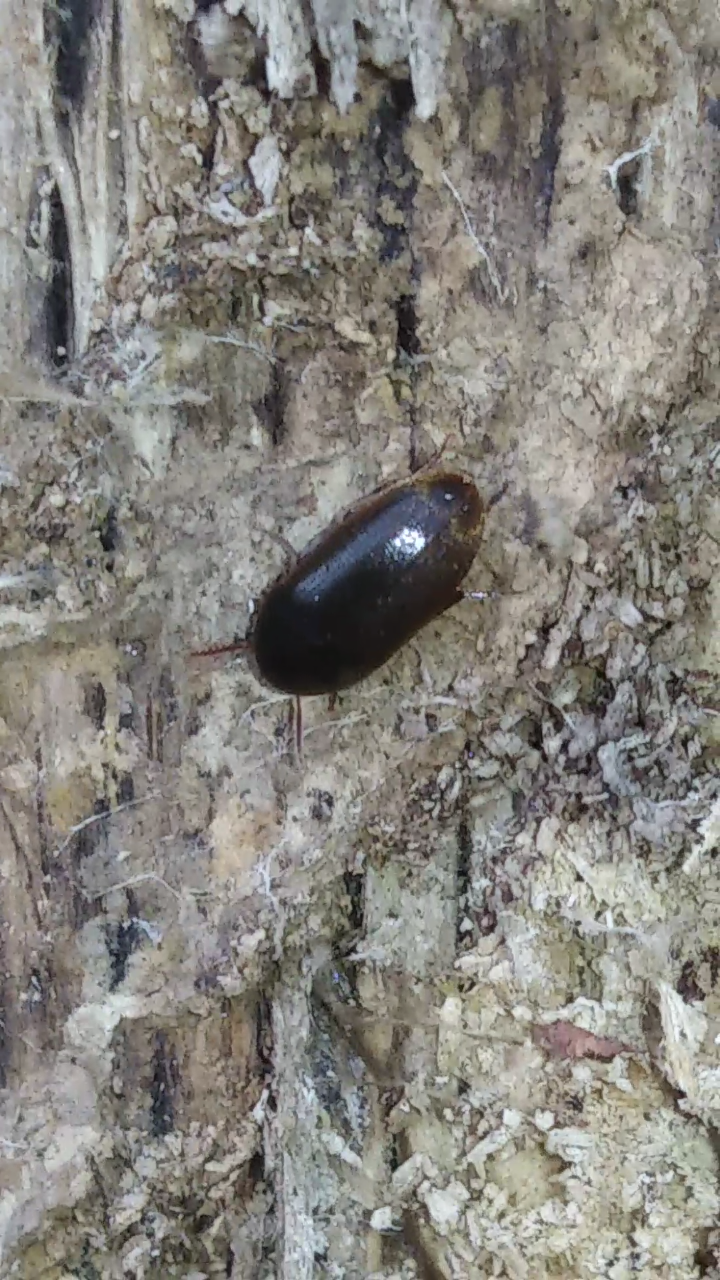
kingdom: Animalia
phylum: Arthropoda
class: Insecta
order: Coleoptera
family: Tetratomidae
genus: Eustrophus
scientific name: Eustrophus tomentosus
